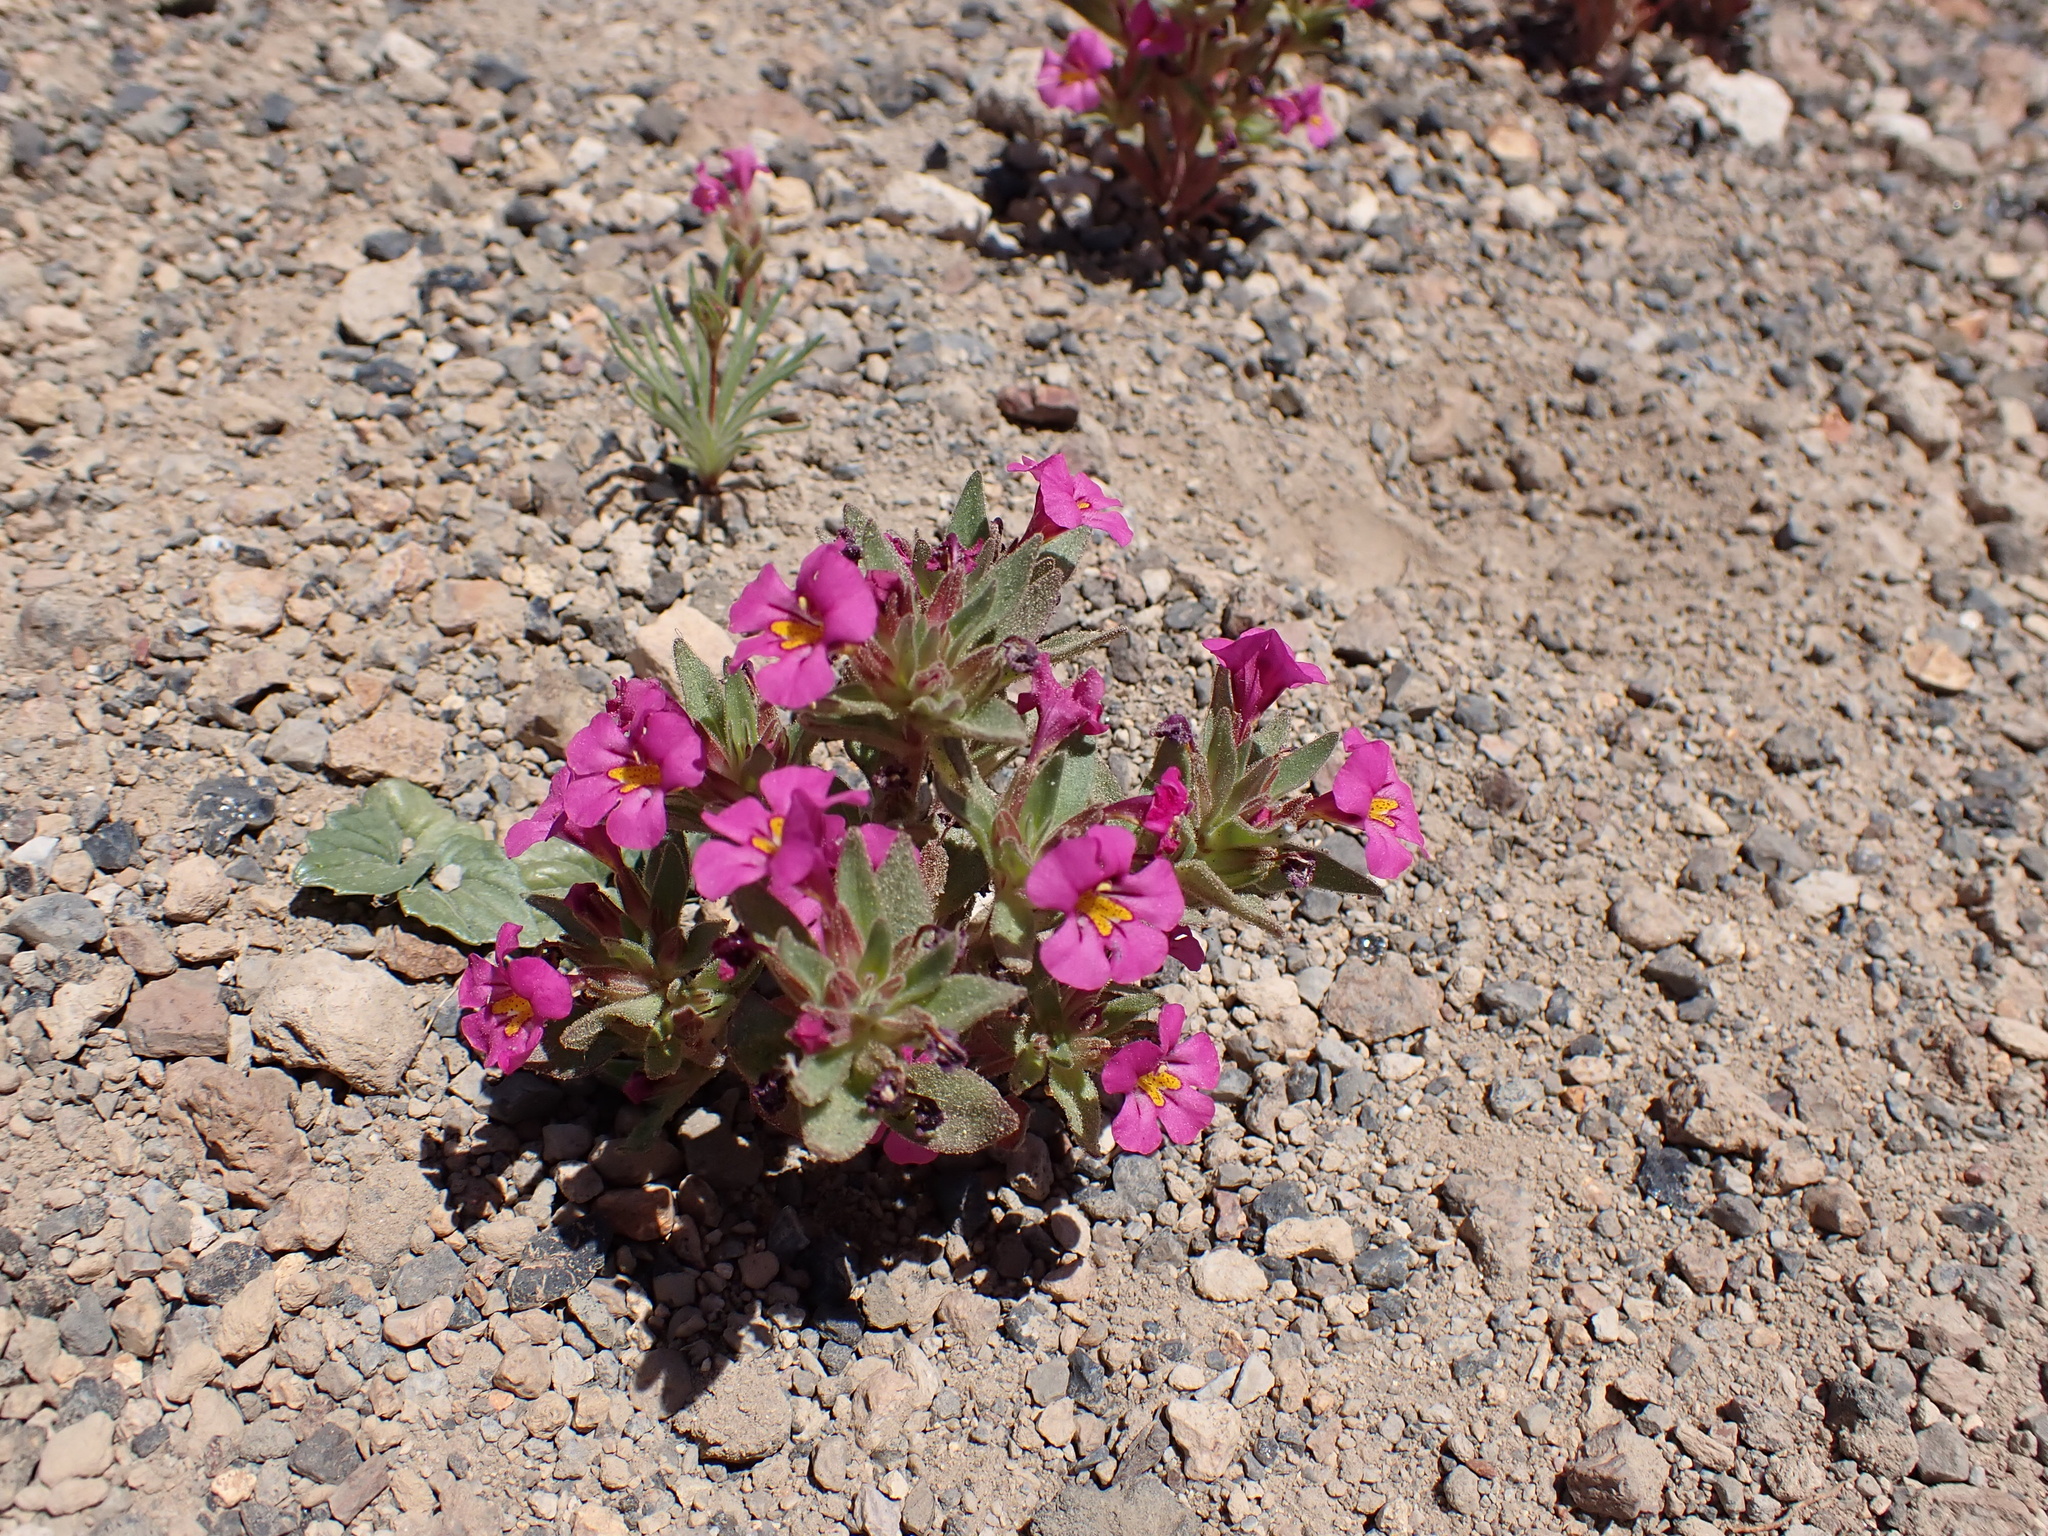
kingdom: Plantae
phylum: Tracheophyta
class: Magnoliopsida
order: Lamiales
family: Phrymaceae
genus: Diplacus
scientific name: Diplacus mephiticus
